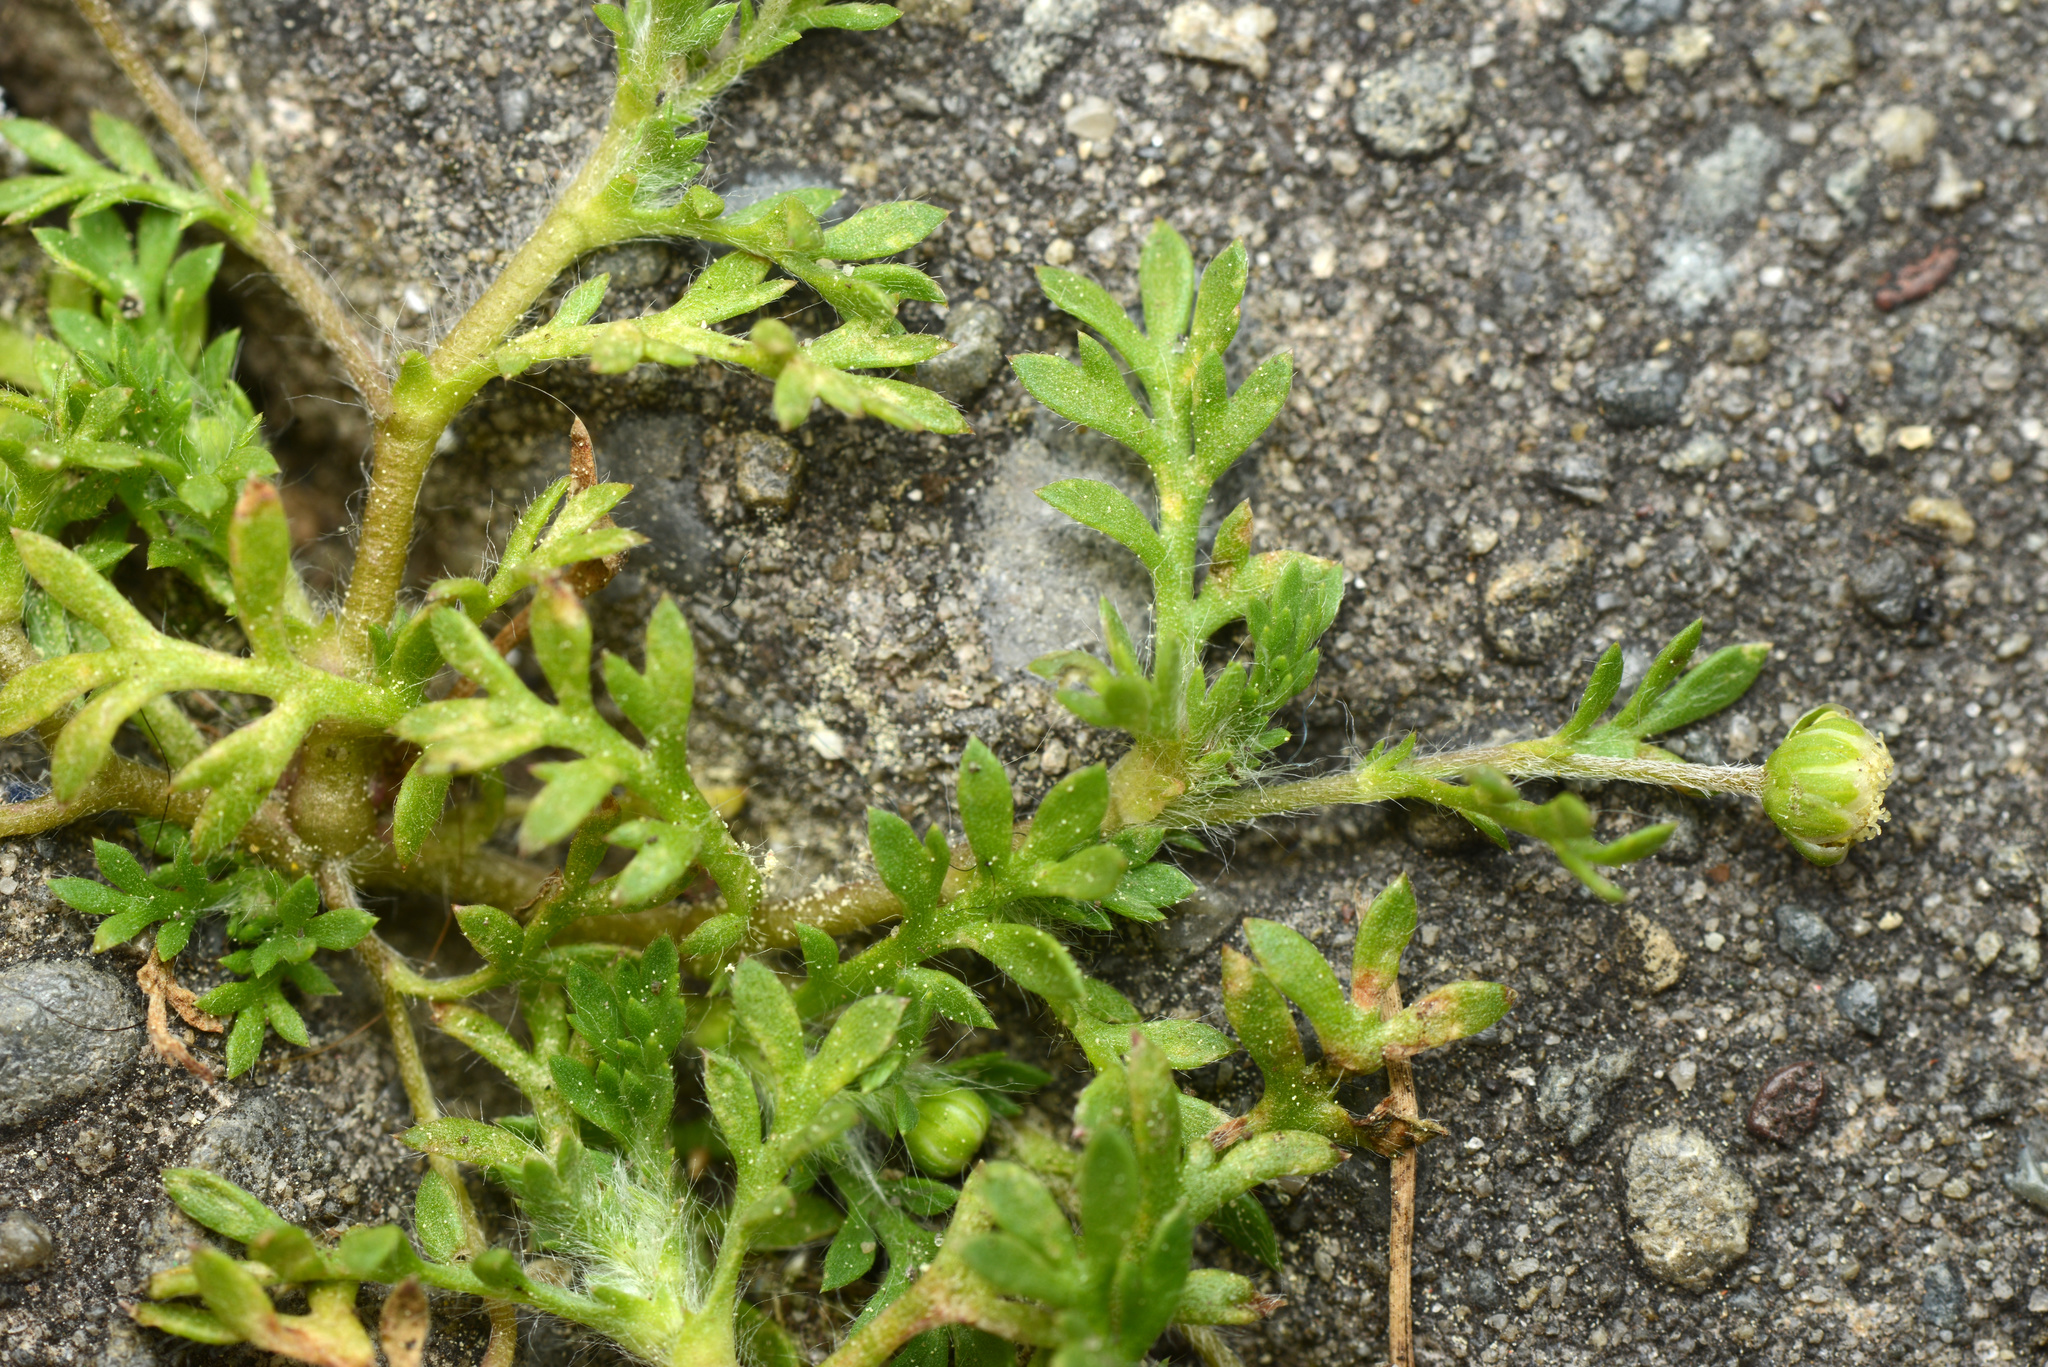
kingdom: Plantae
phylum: Tracheophyta
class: Magnoliopsida
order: Asterales
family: Asteraceae
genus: Cotula
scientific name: Cotula australis
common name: Australian waterbuttons
